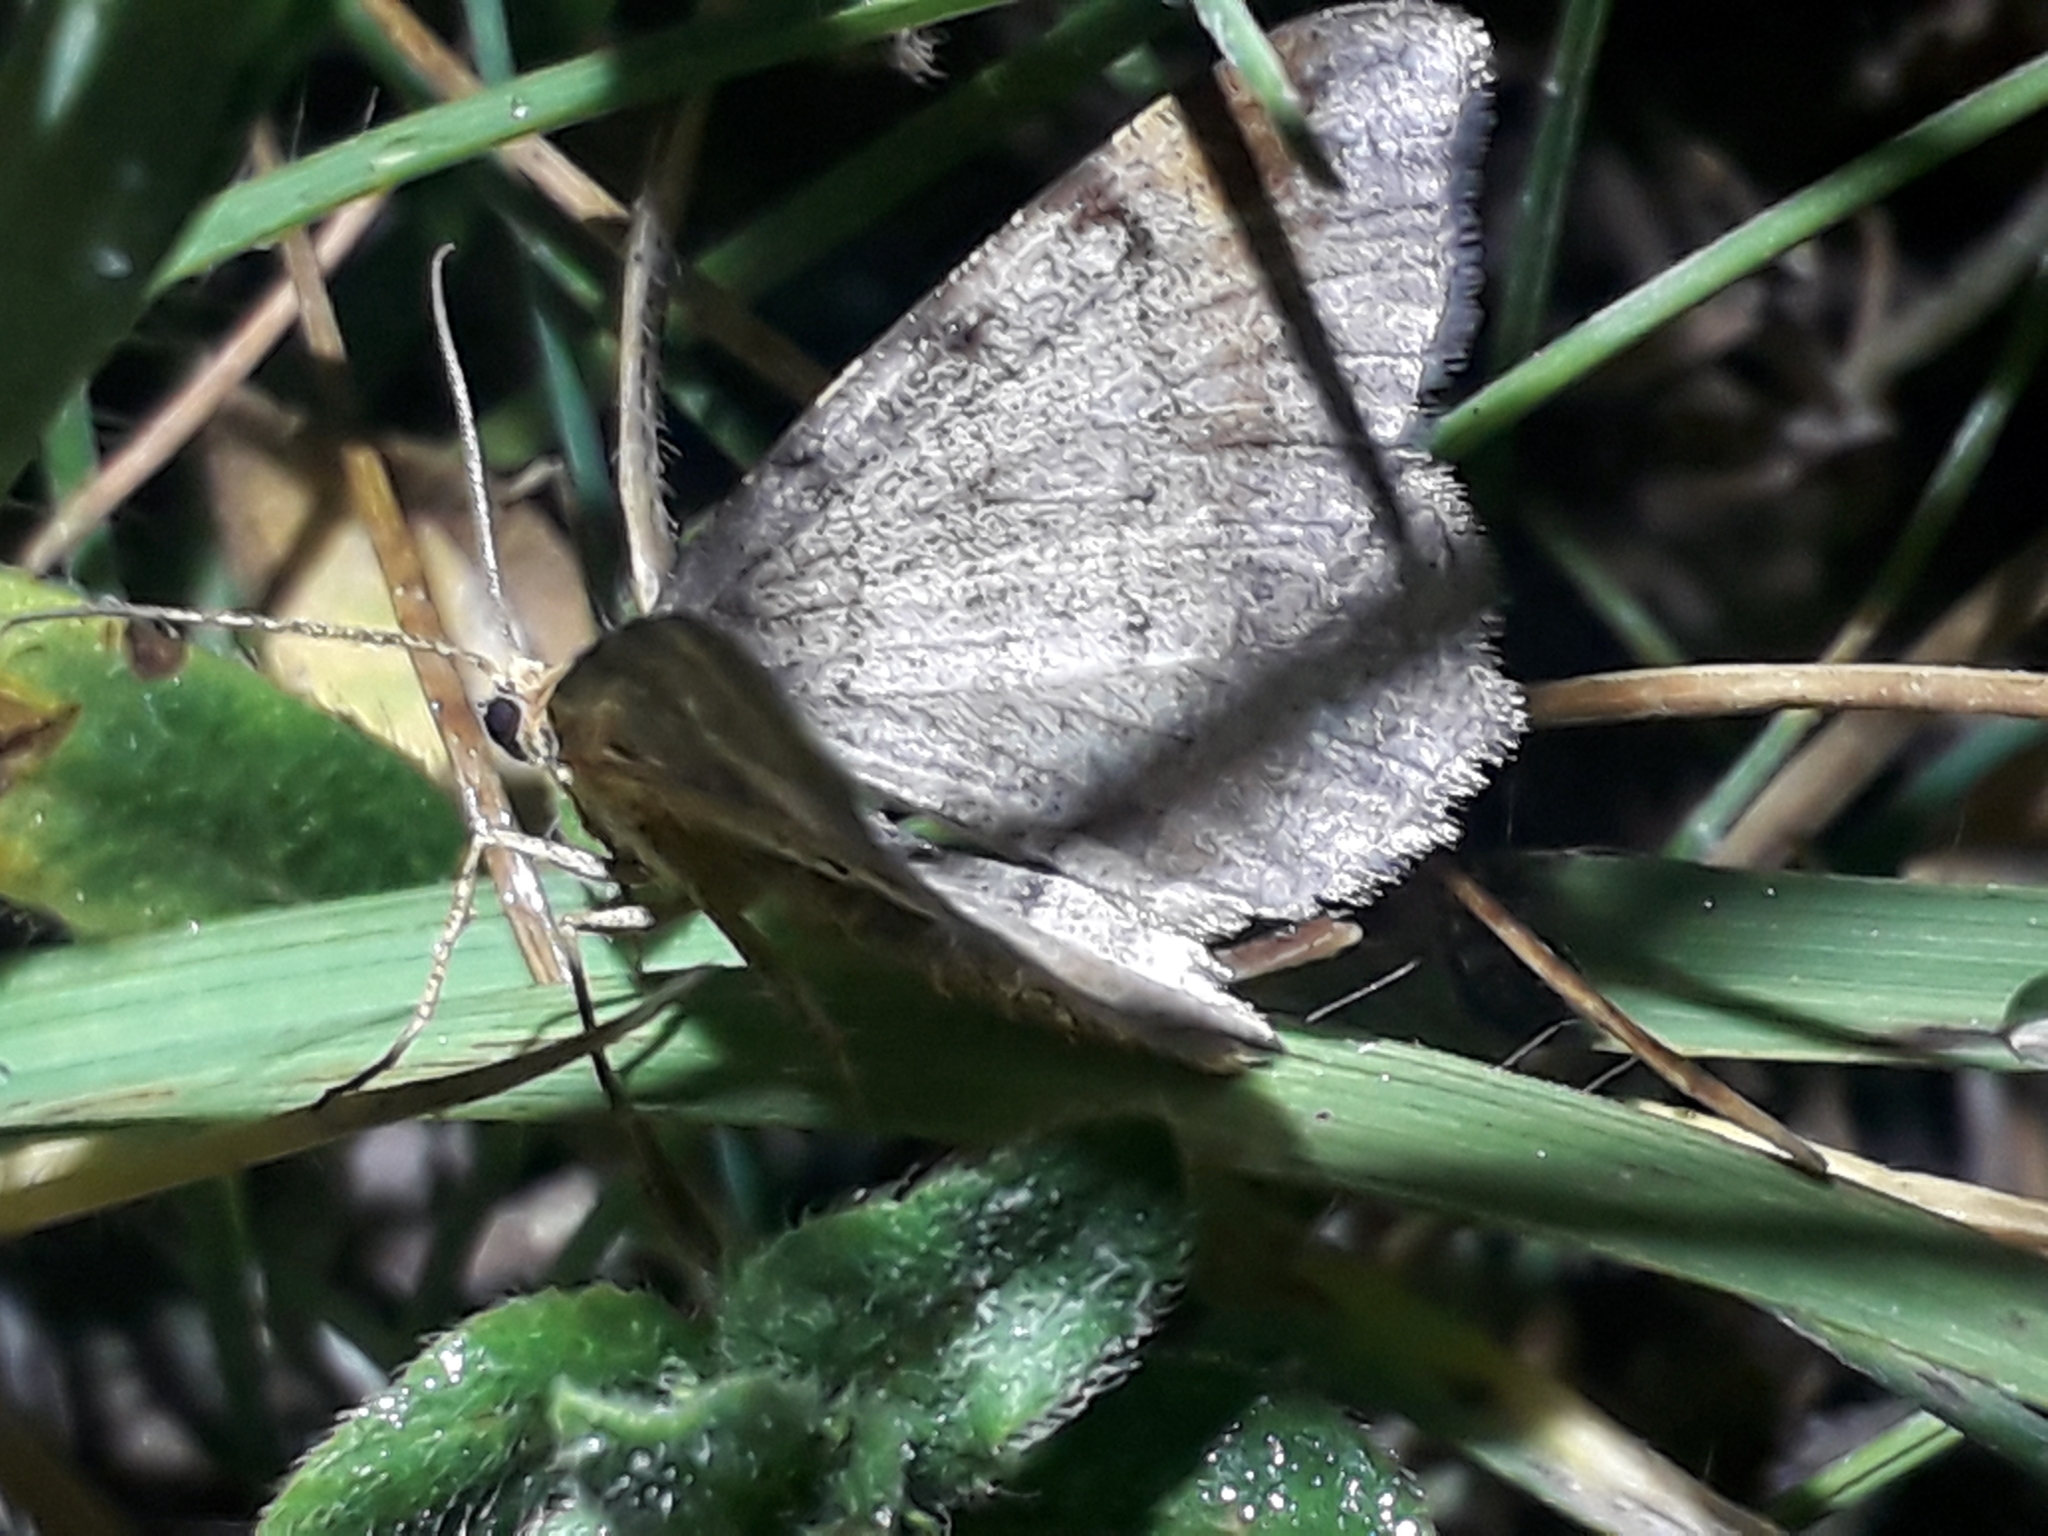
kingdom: Animalia
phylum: Arthropoda
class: Insecta
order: Lepidoptera
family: Geometridae
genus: Macaria
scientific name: Macaria liturata
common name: Tawny-barred angle
